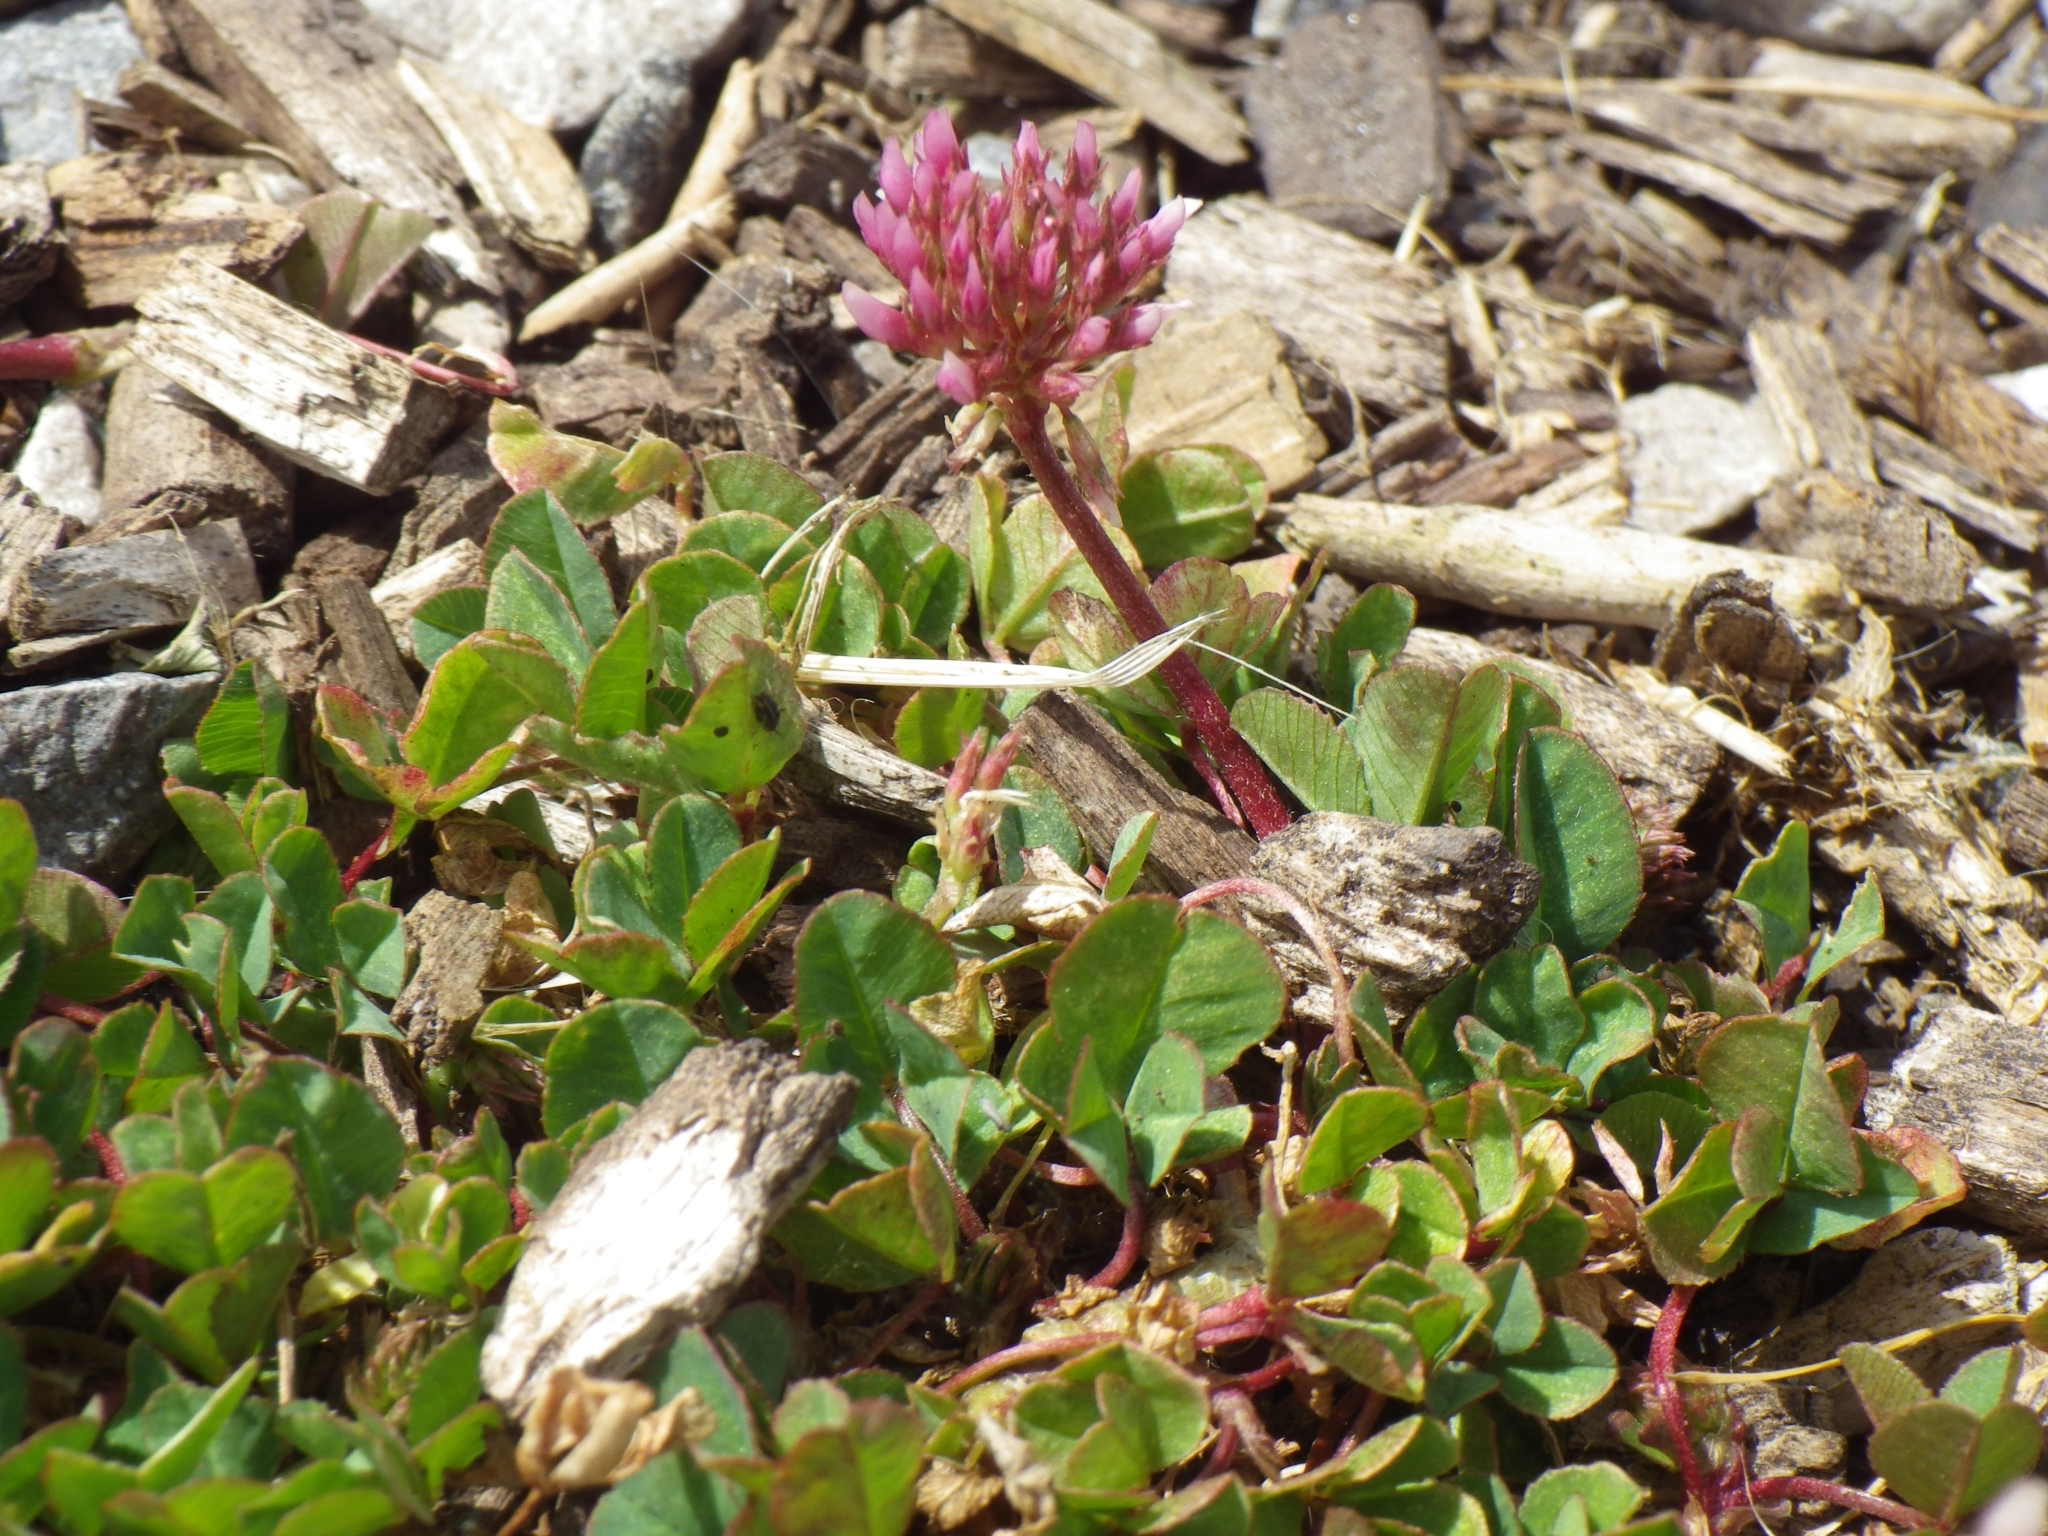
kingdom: Plantae
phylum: Tracheophyta
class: Magnoliopsida
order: Fabales
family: Fabaceae
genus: Trifolium
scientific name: Trifolium repens
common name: White clover
